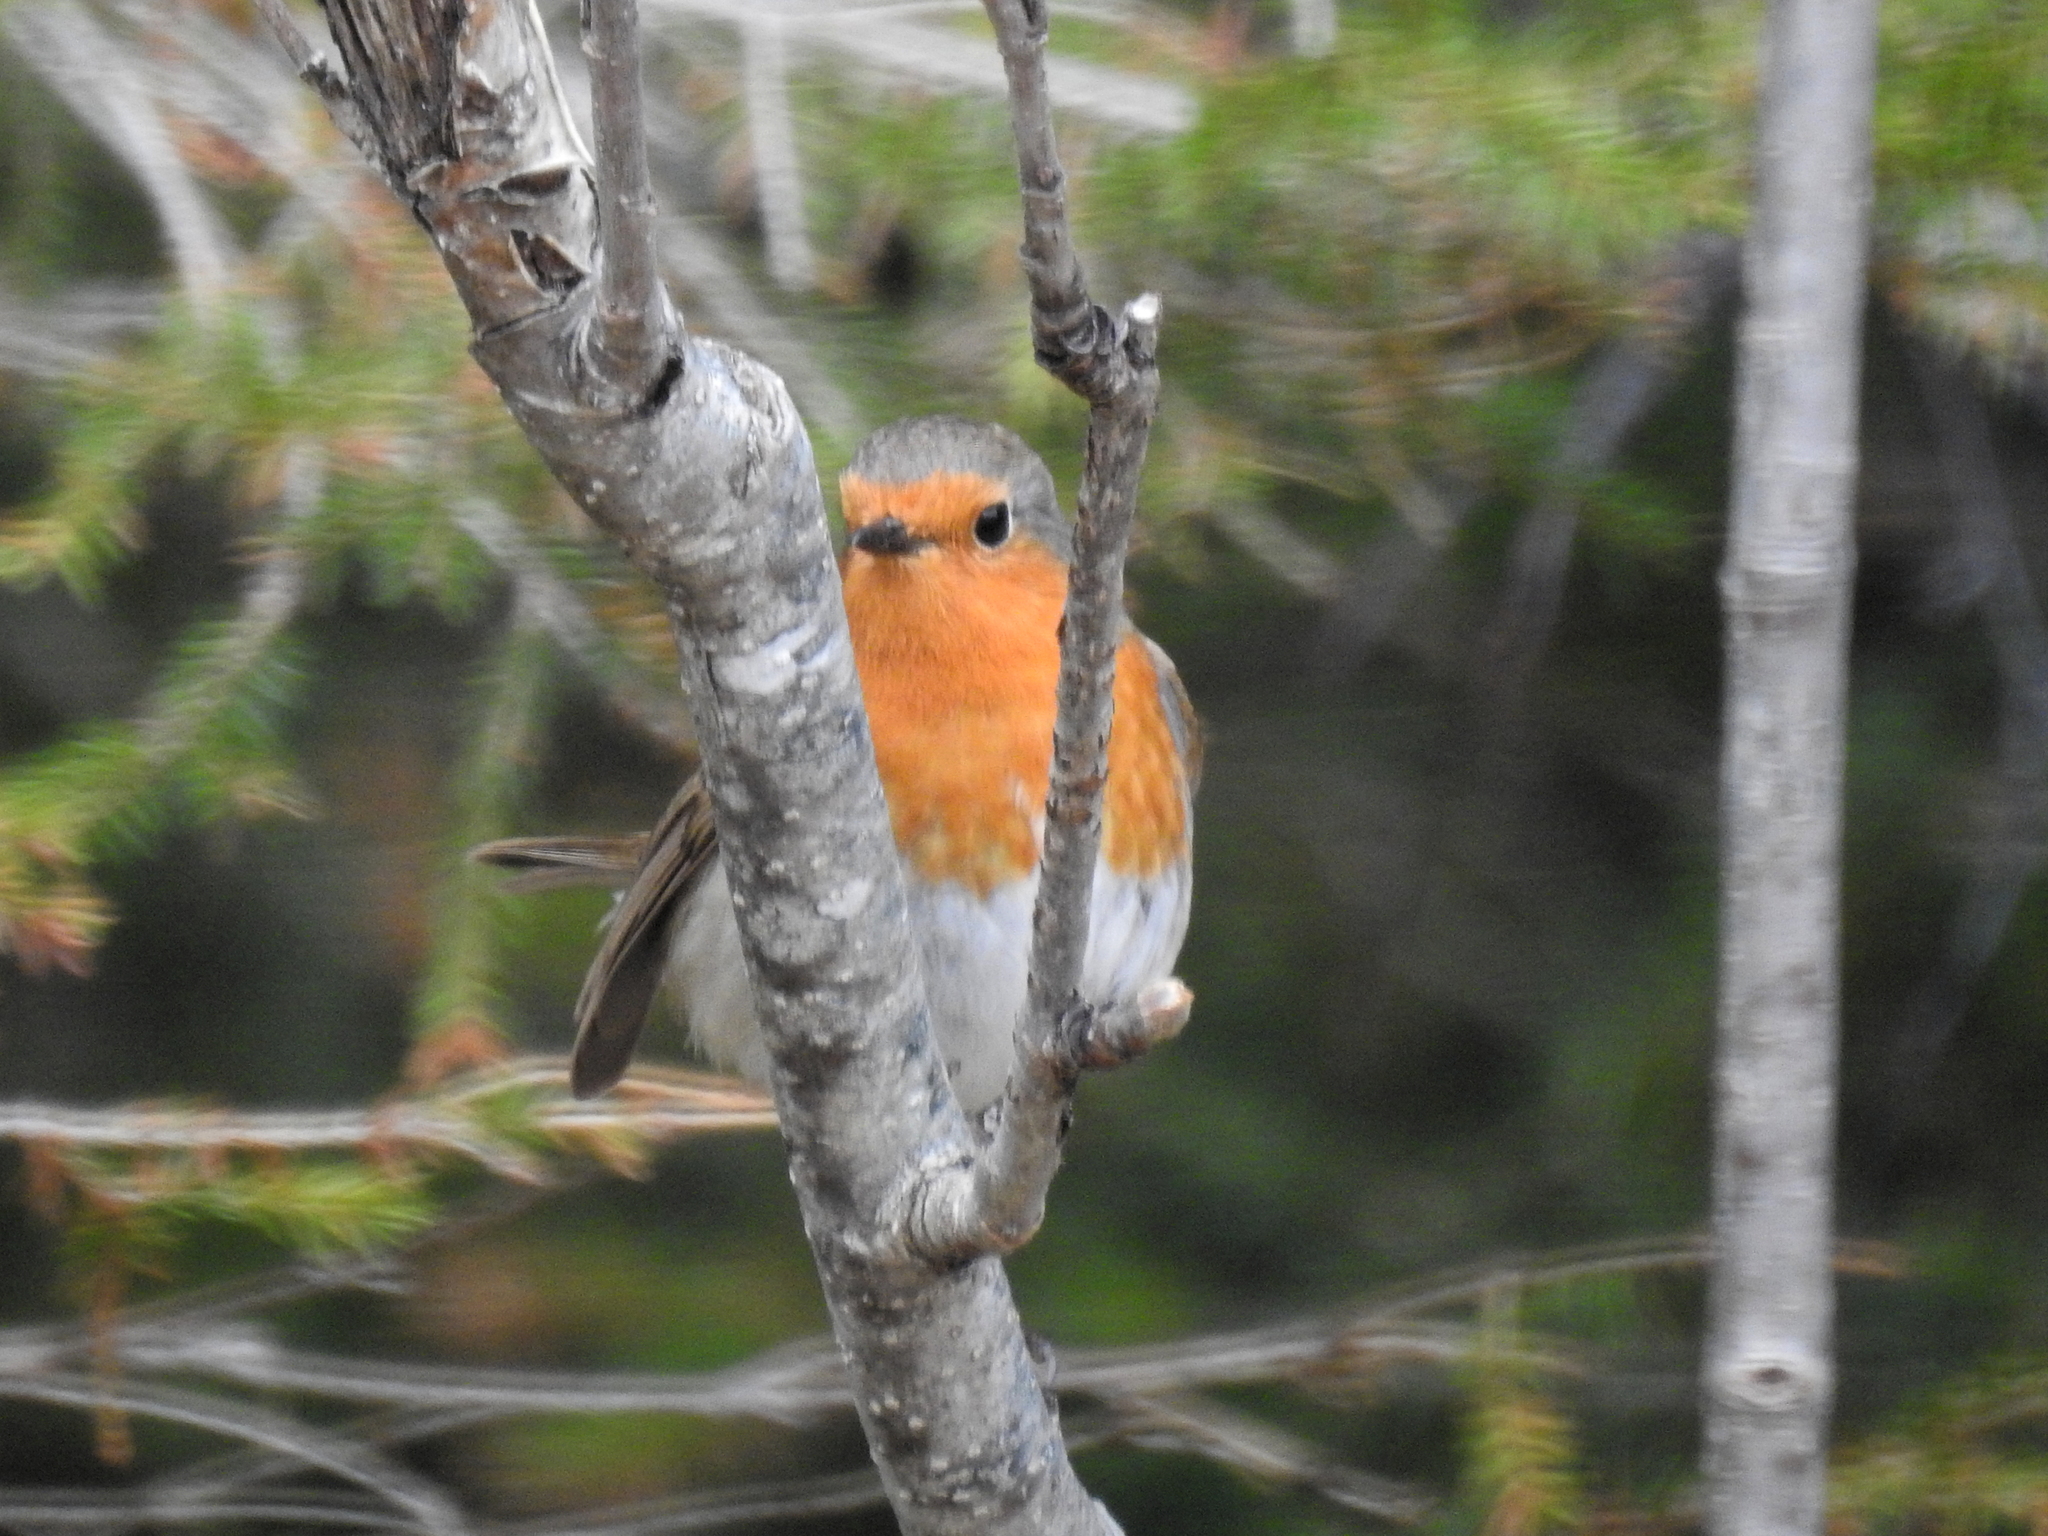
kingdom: Animalia
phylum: Chordata
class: Aves
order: Passeriformes
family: Muscicapidae
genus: Erithacus
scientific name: Erithacus rubecula
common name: European robin
